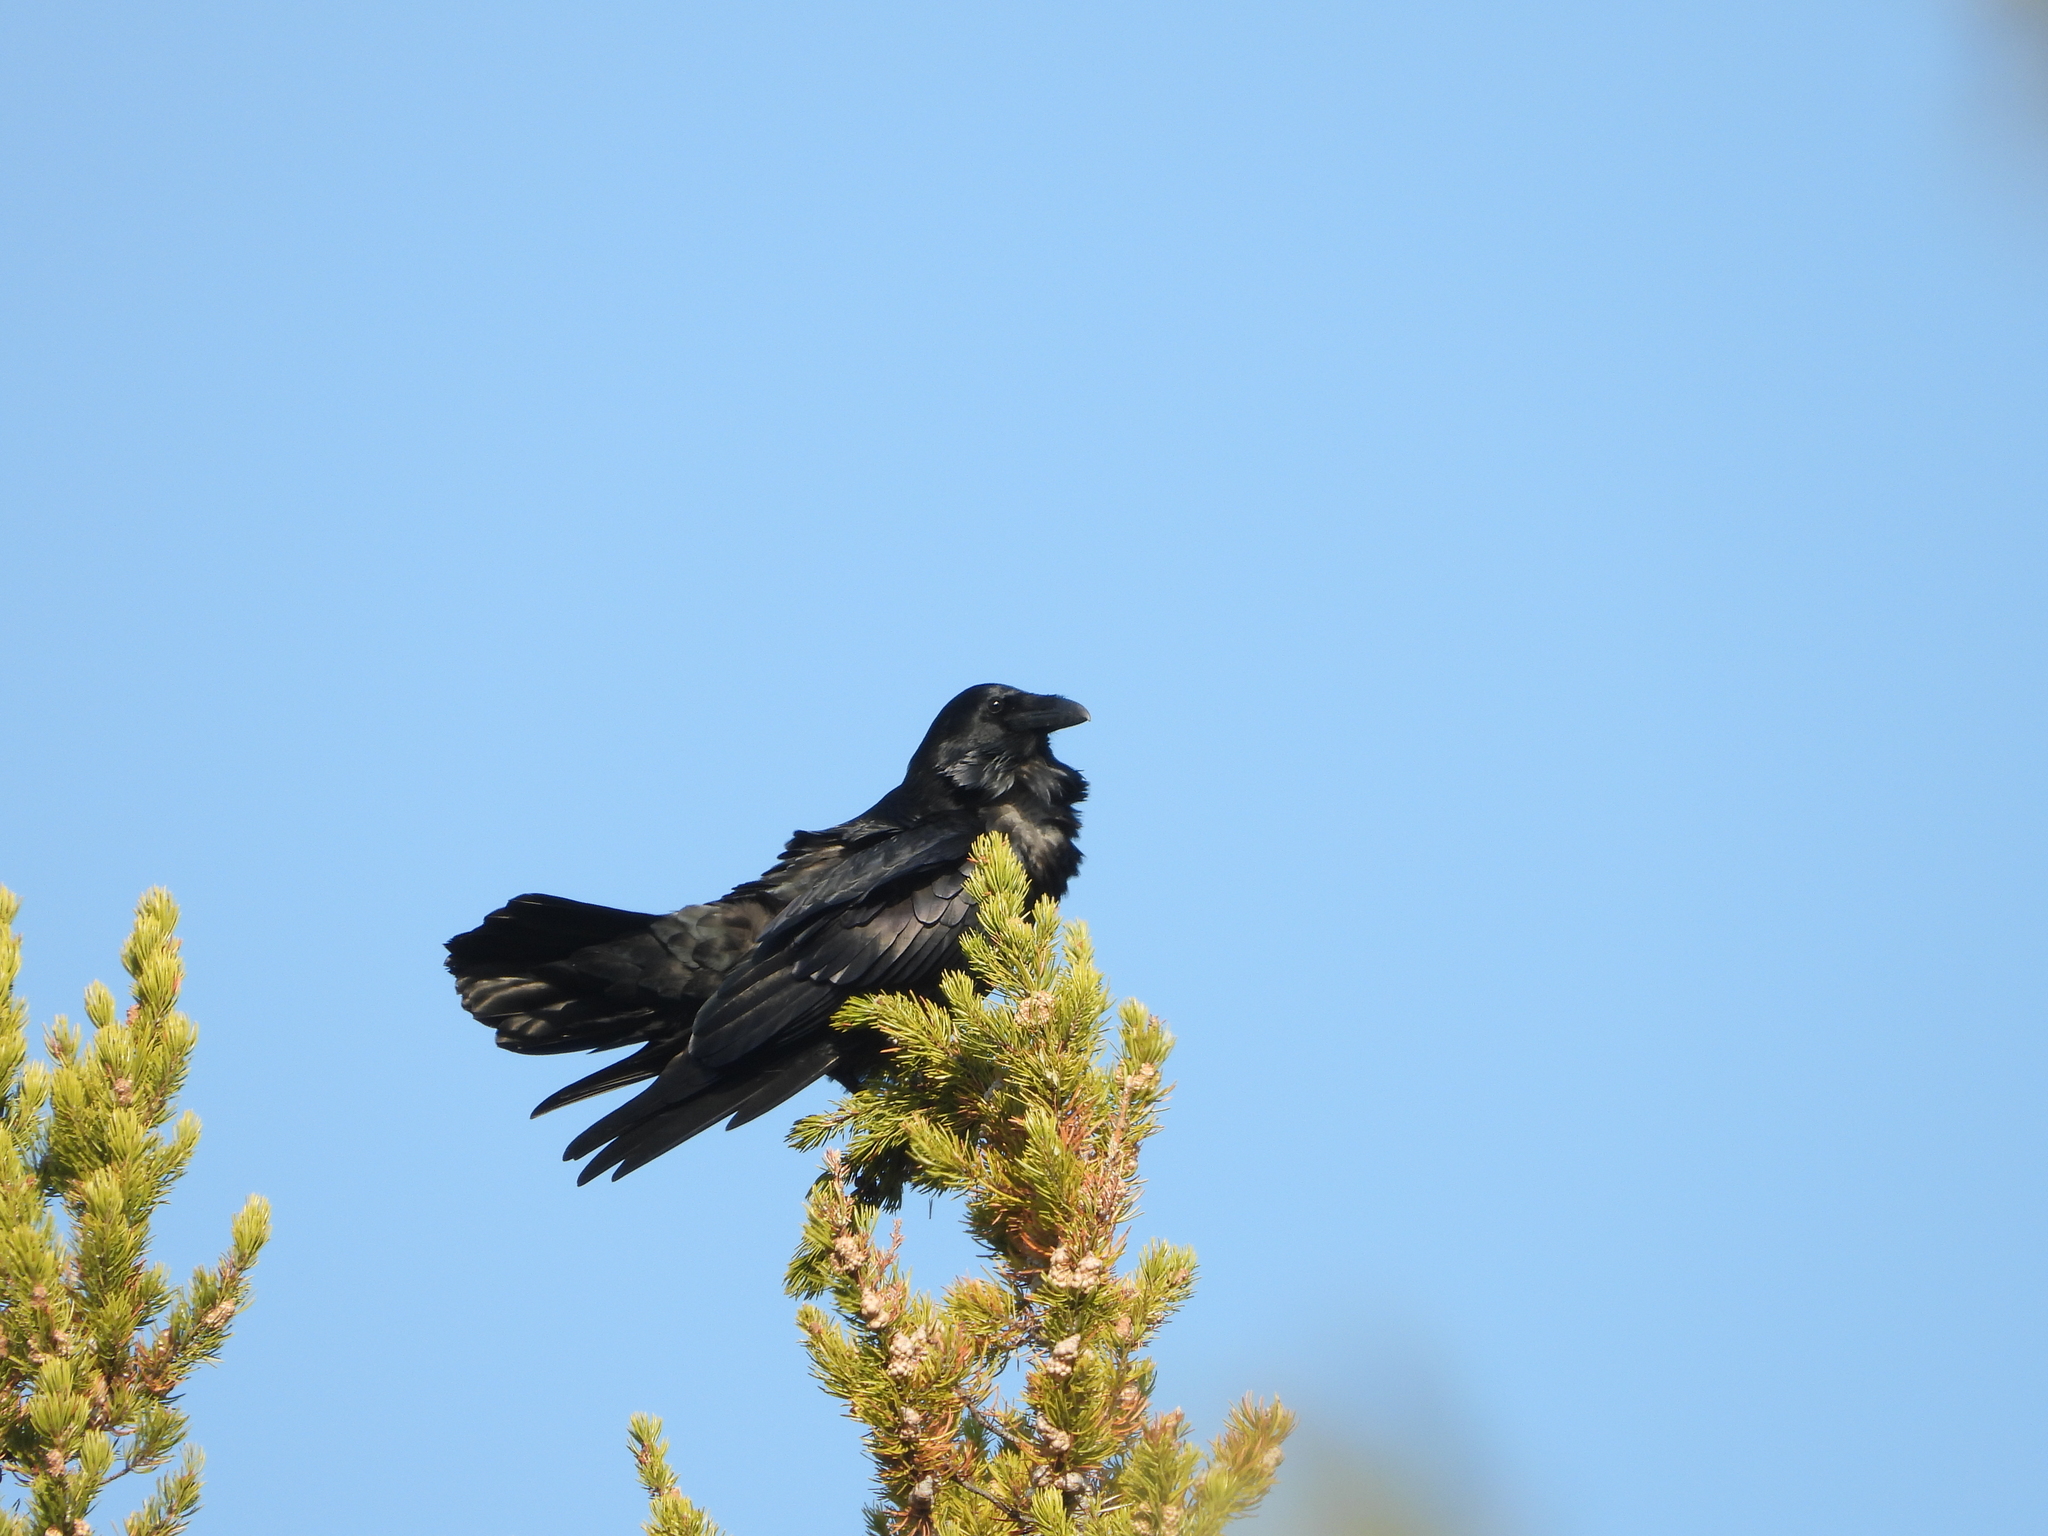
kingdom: Animalia
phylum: Chordata
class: Aves
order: Passeriformes
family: Corvidae
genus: Corvus
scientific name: Corvus corax
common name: Common raven
